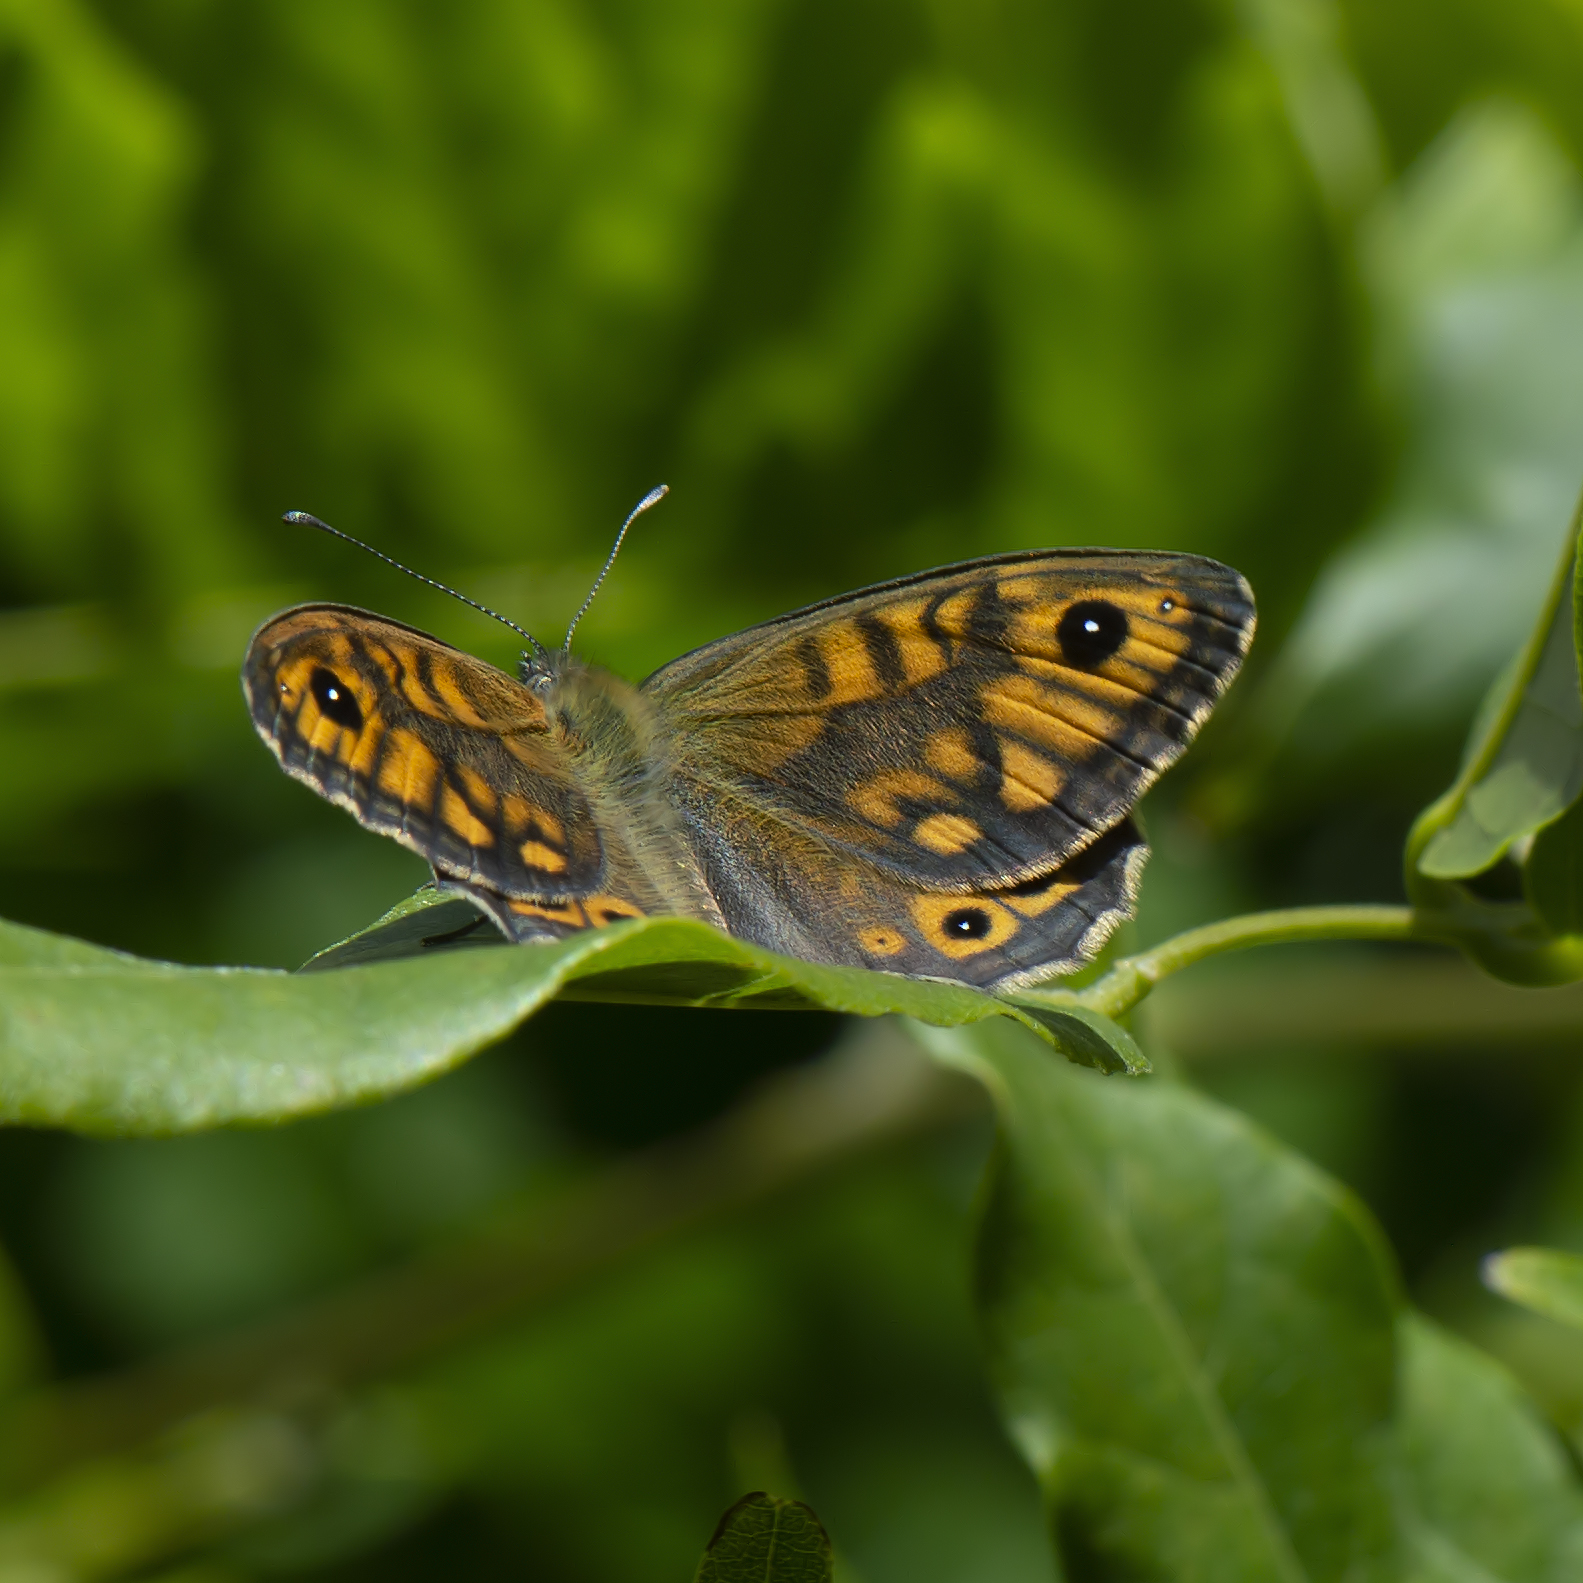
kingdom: Animalia
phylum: Arthropoda
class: Insecta
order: Lepidoptera
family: Nymphalidae
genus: Pararge
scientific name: Pararge Lasiommata megera
